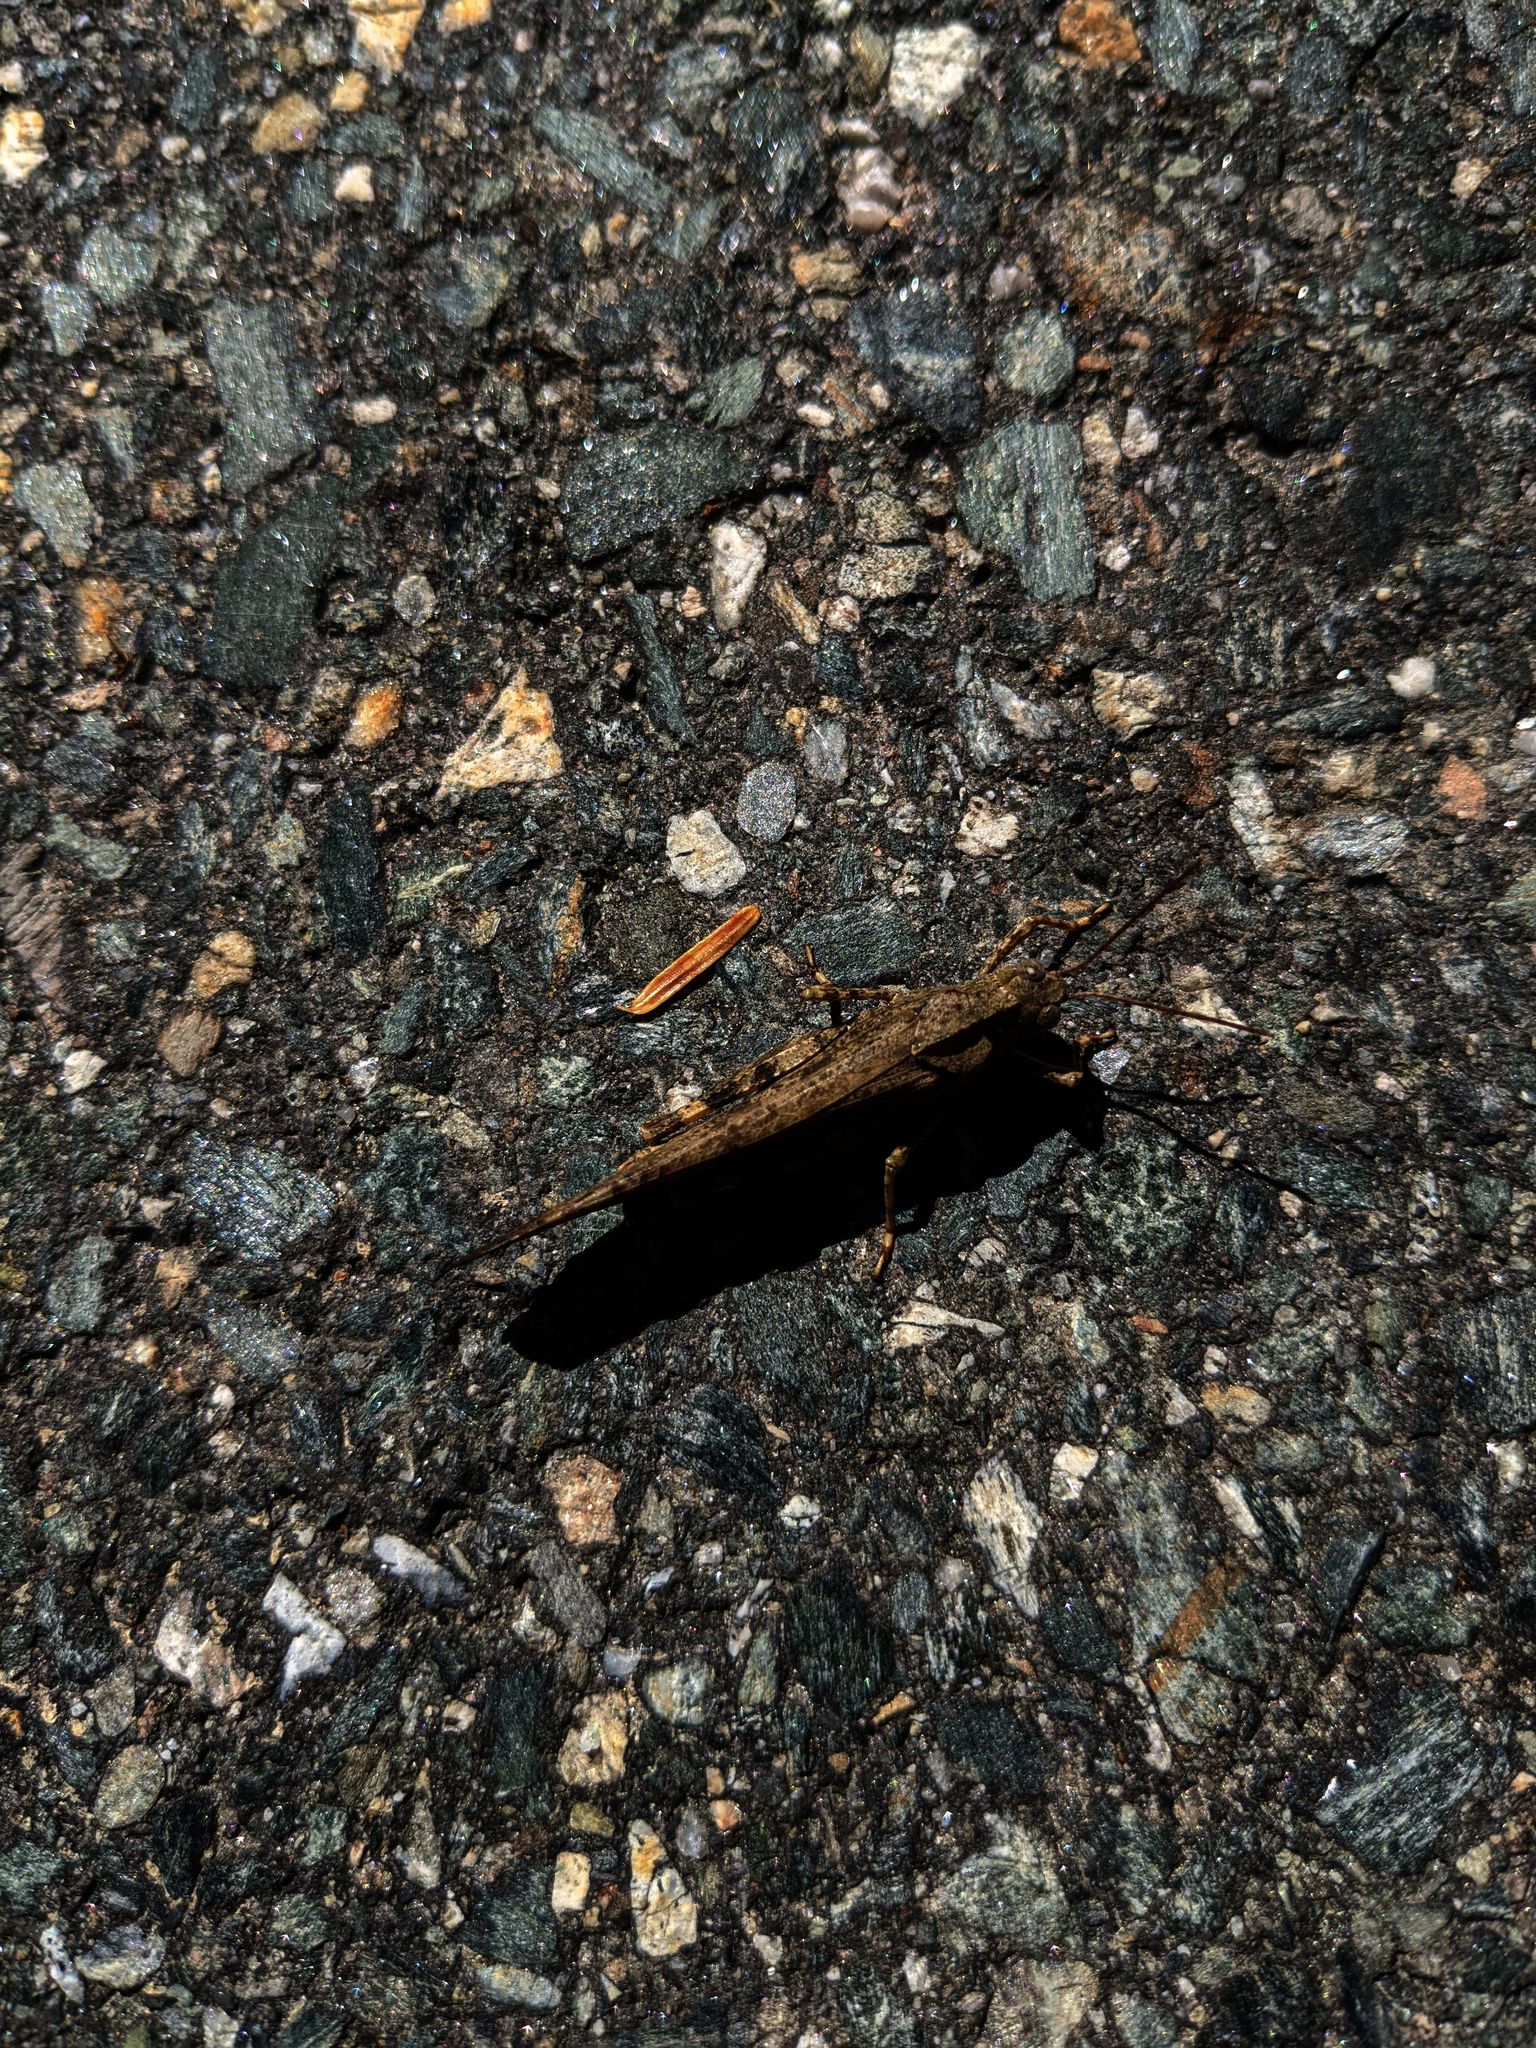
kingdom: Animalia
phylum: Arthropoda
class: Insecta
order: Orthoptera
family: Acrididae
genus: Dissosteira
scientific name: Dissosteira carolina
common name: Carolina grasshopper
